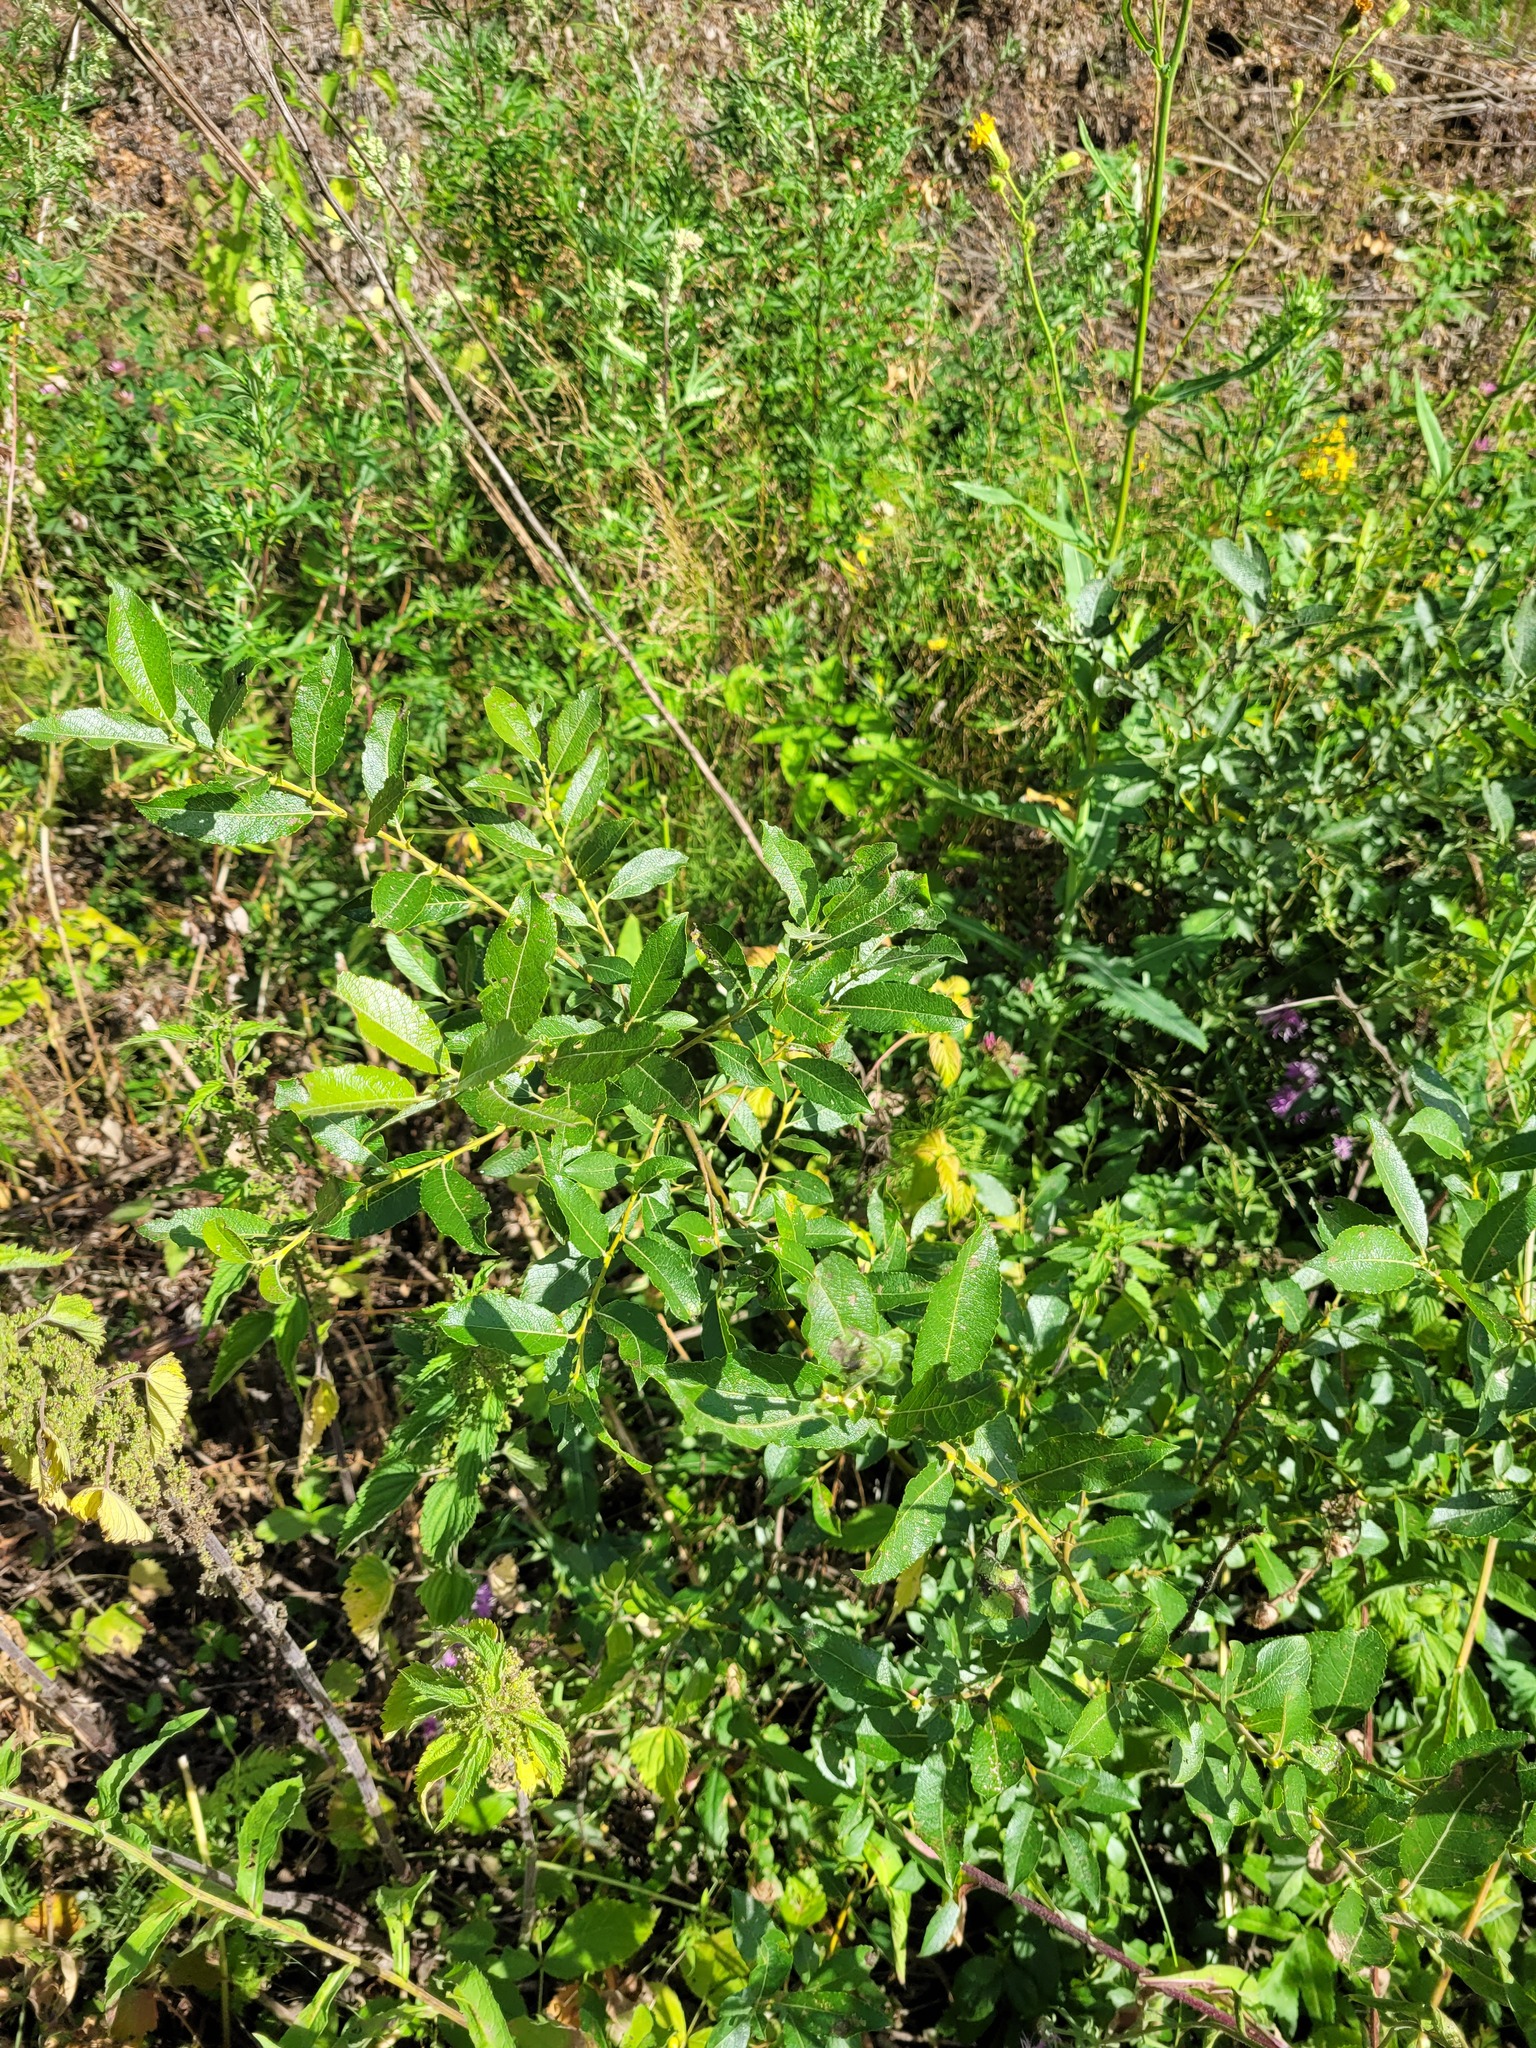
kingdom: Plantae
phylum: Tracheophyta
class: Magnoliopsida
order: Malpighiales
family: Salicaceae
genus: Salix
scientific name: Salix myrsinifolia
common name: Dark-leaved willow
